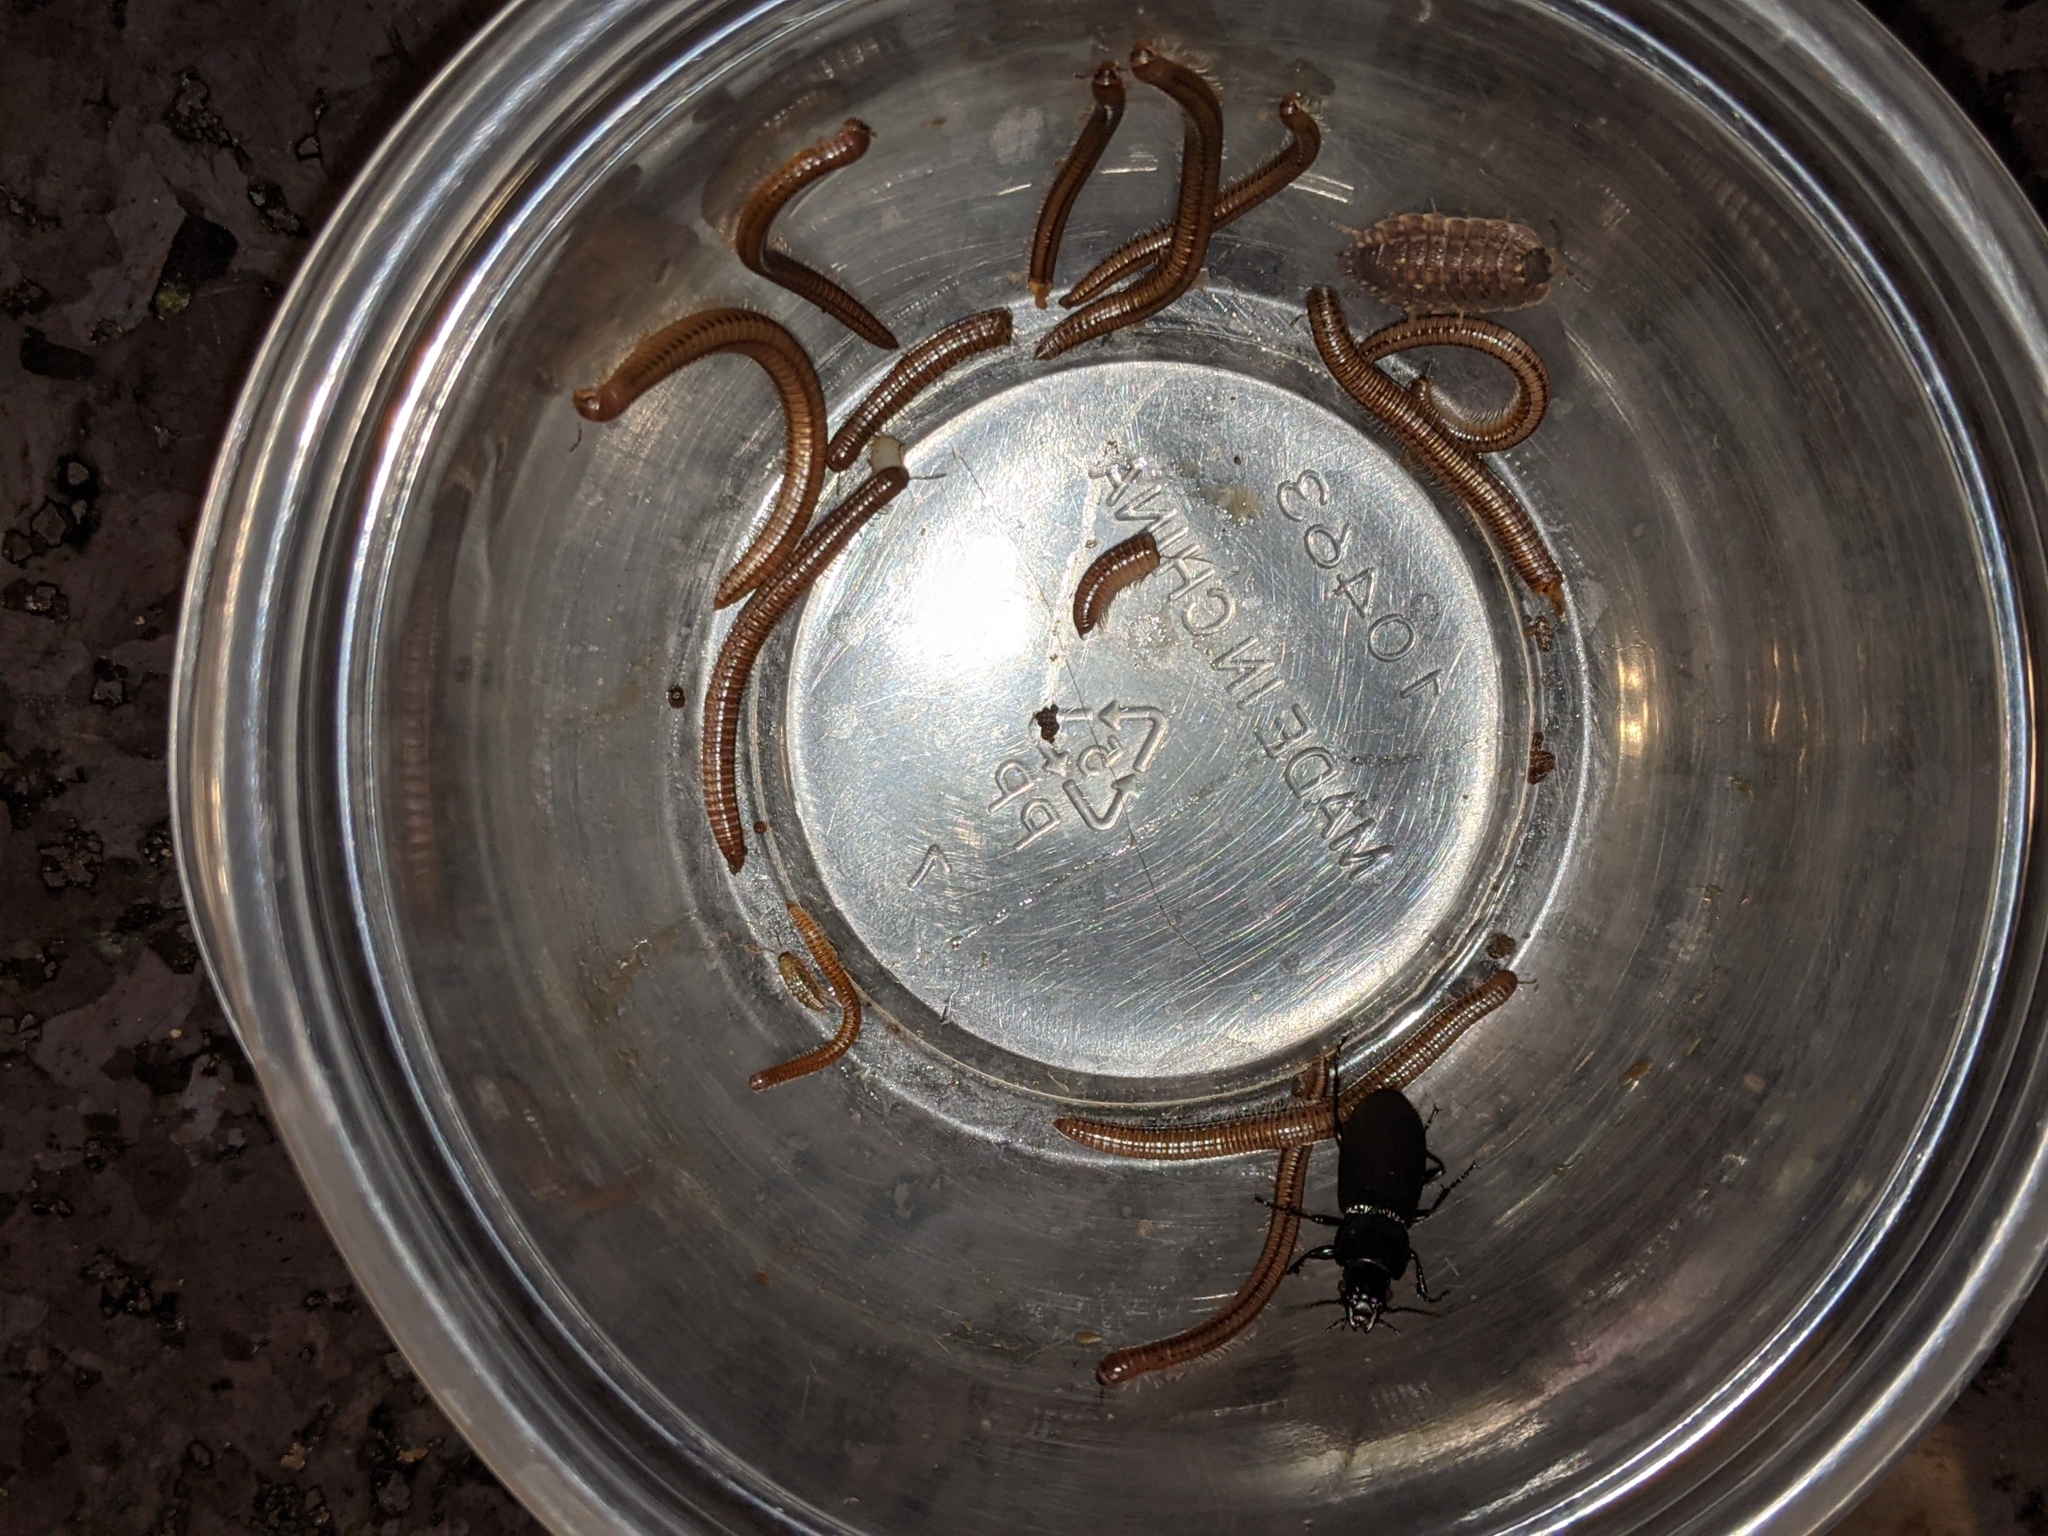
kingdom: Animalia
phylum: Arthropoda
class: Insecta
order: Coleoptera
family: Carabidae
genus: Pterostichus
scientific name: Pterostichus melanarius
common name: European dark harp ground beetle
